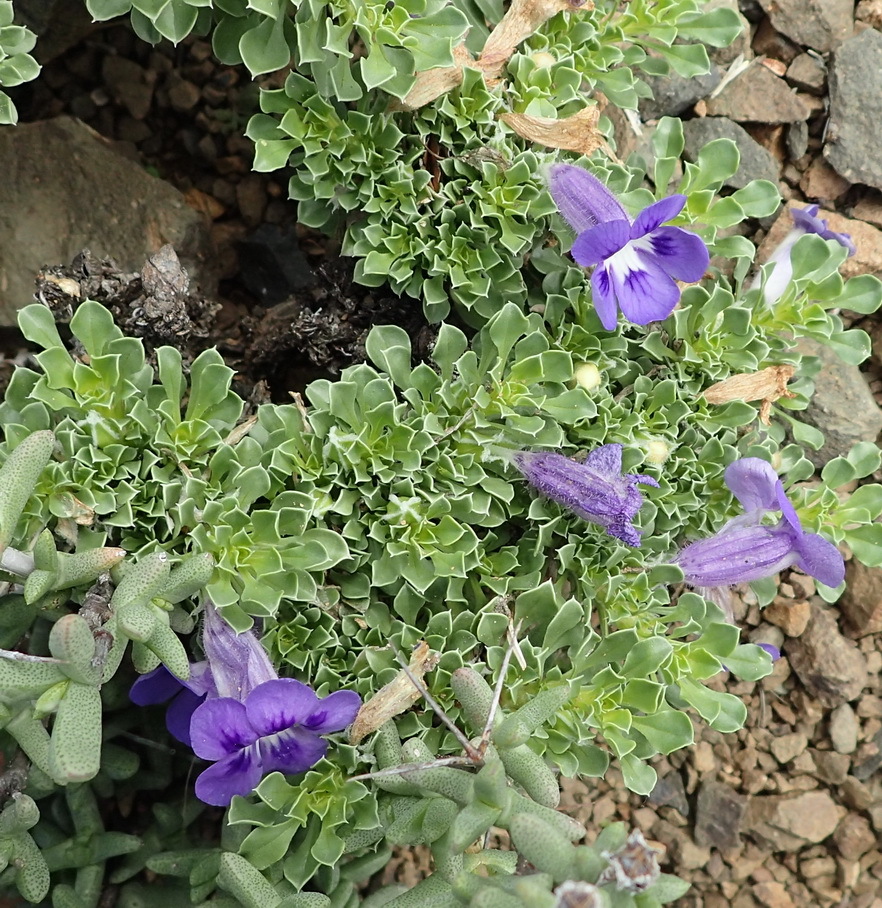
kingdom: Plantae
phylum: Tracheophyta
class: Magnoliopsida
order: Lamiales
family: Scrophulariaceae
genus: Aptosimum
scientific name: Aptosimum indivisum
